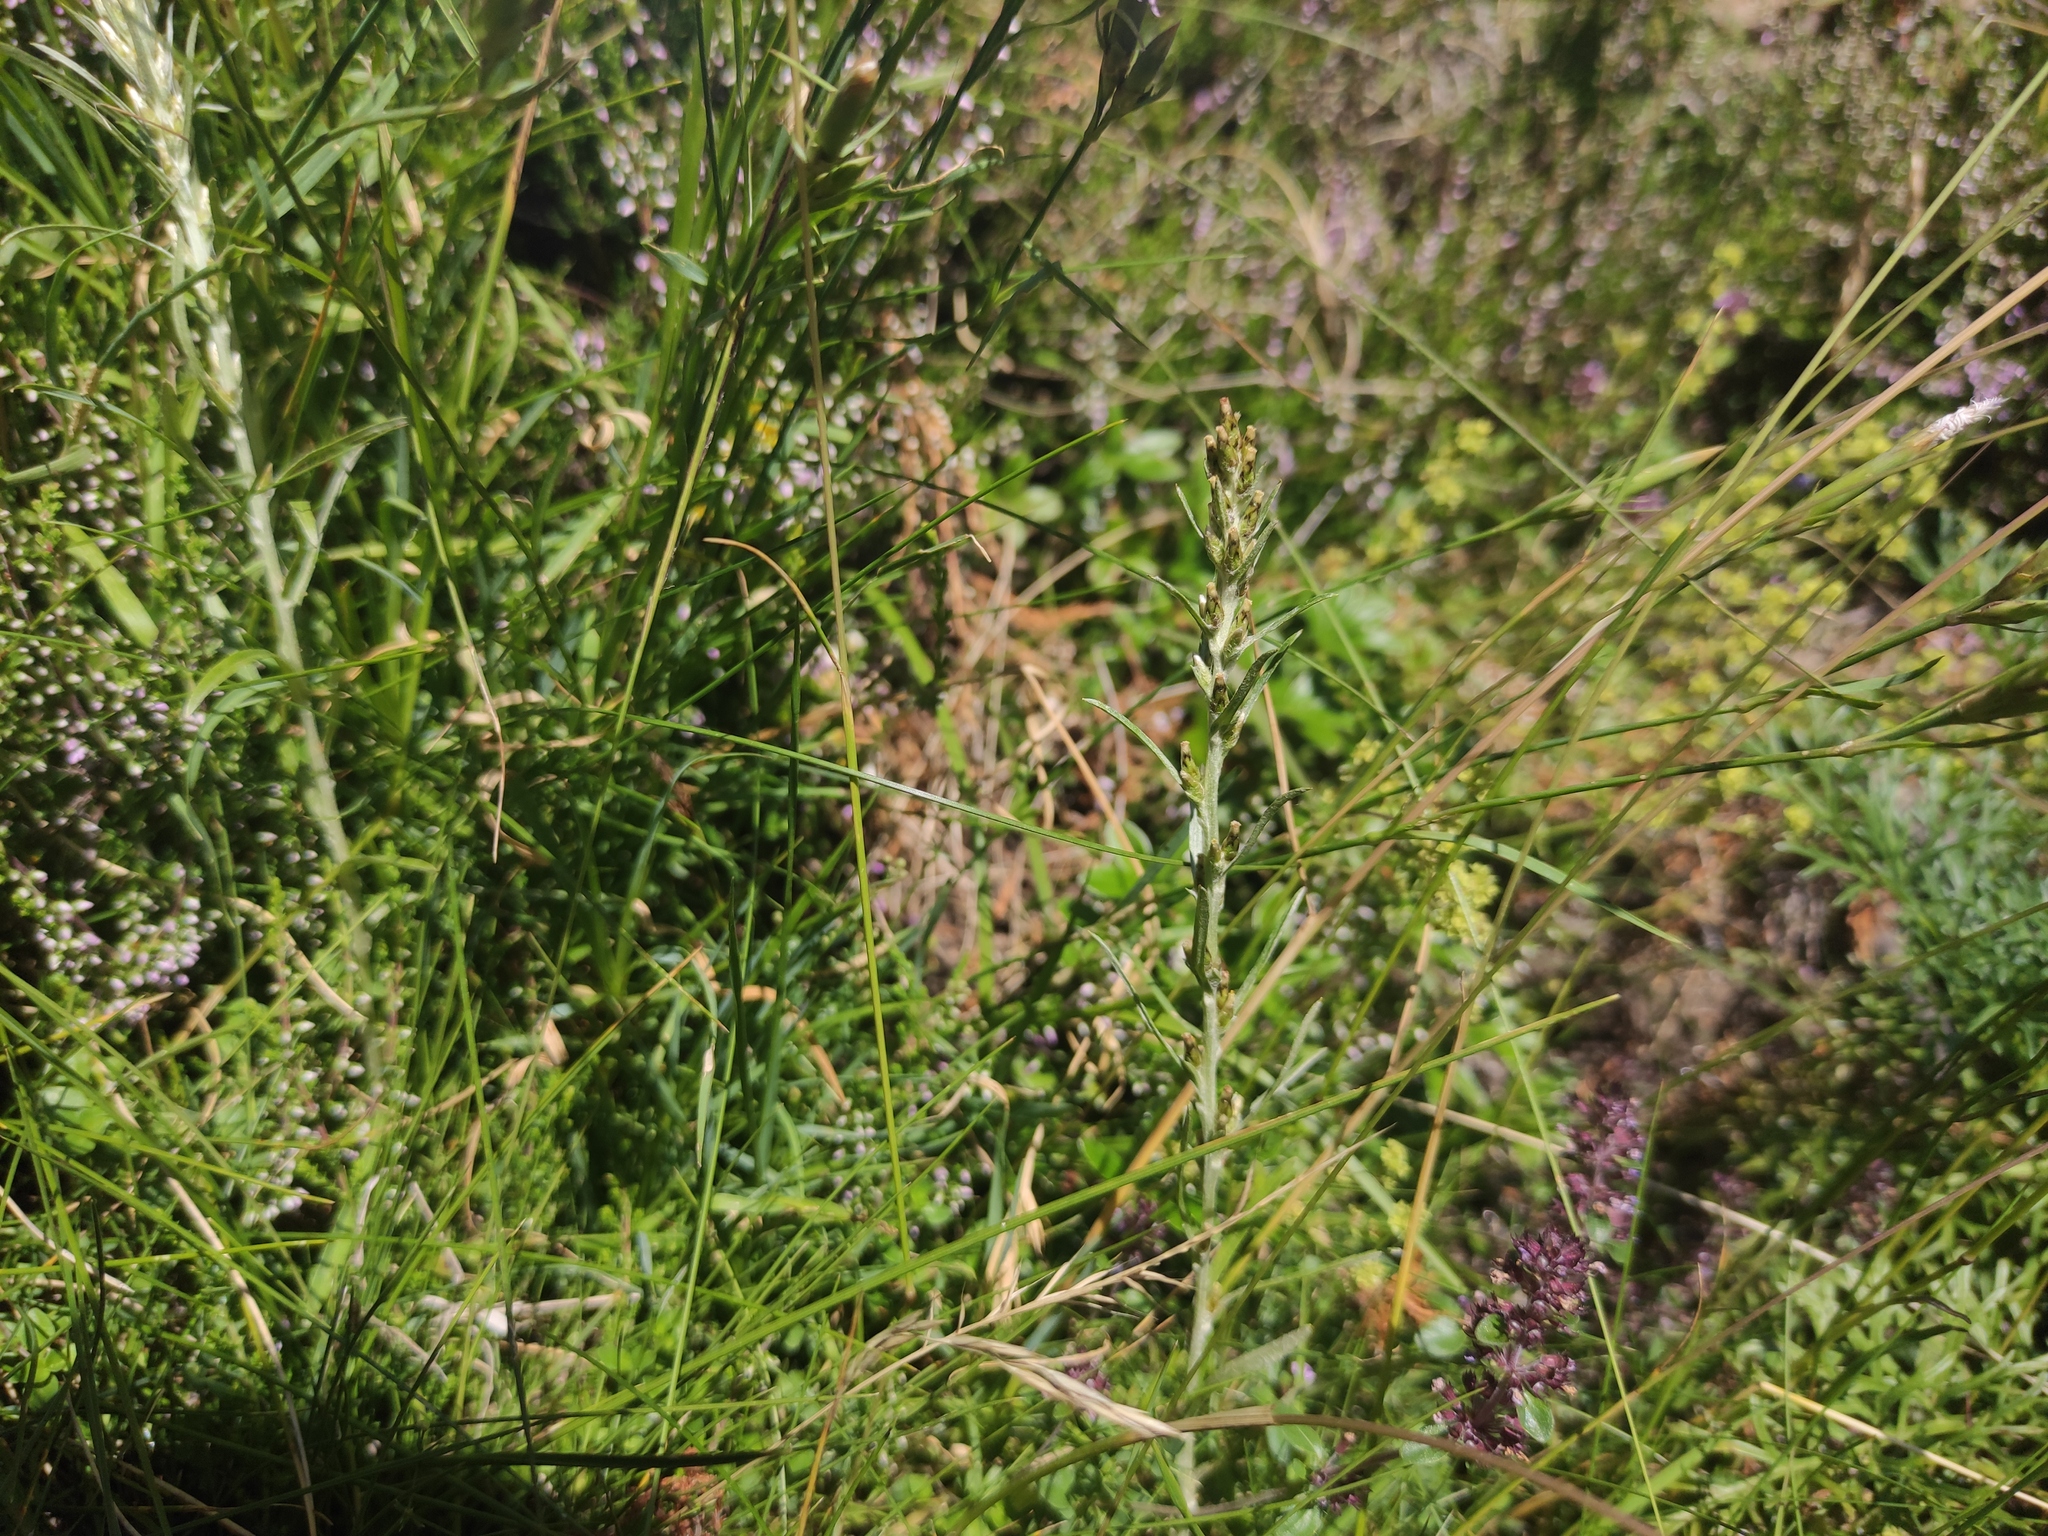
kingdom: Plantae
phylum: Tracheophyta
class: Magnoliopsida
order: Asterales
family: Asteraceae
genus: Omalotheca
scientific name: Omalotheca sylvatica
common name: Heath cudweed
